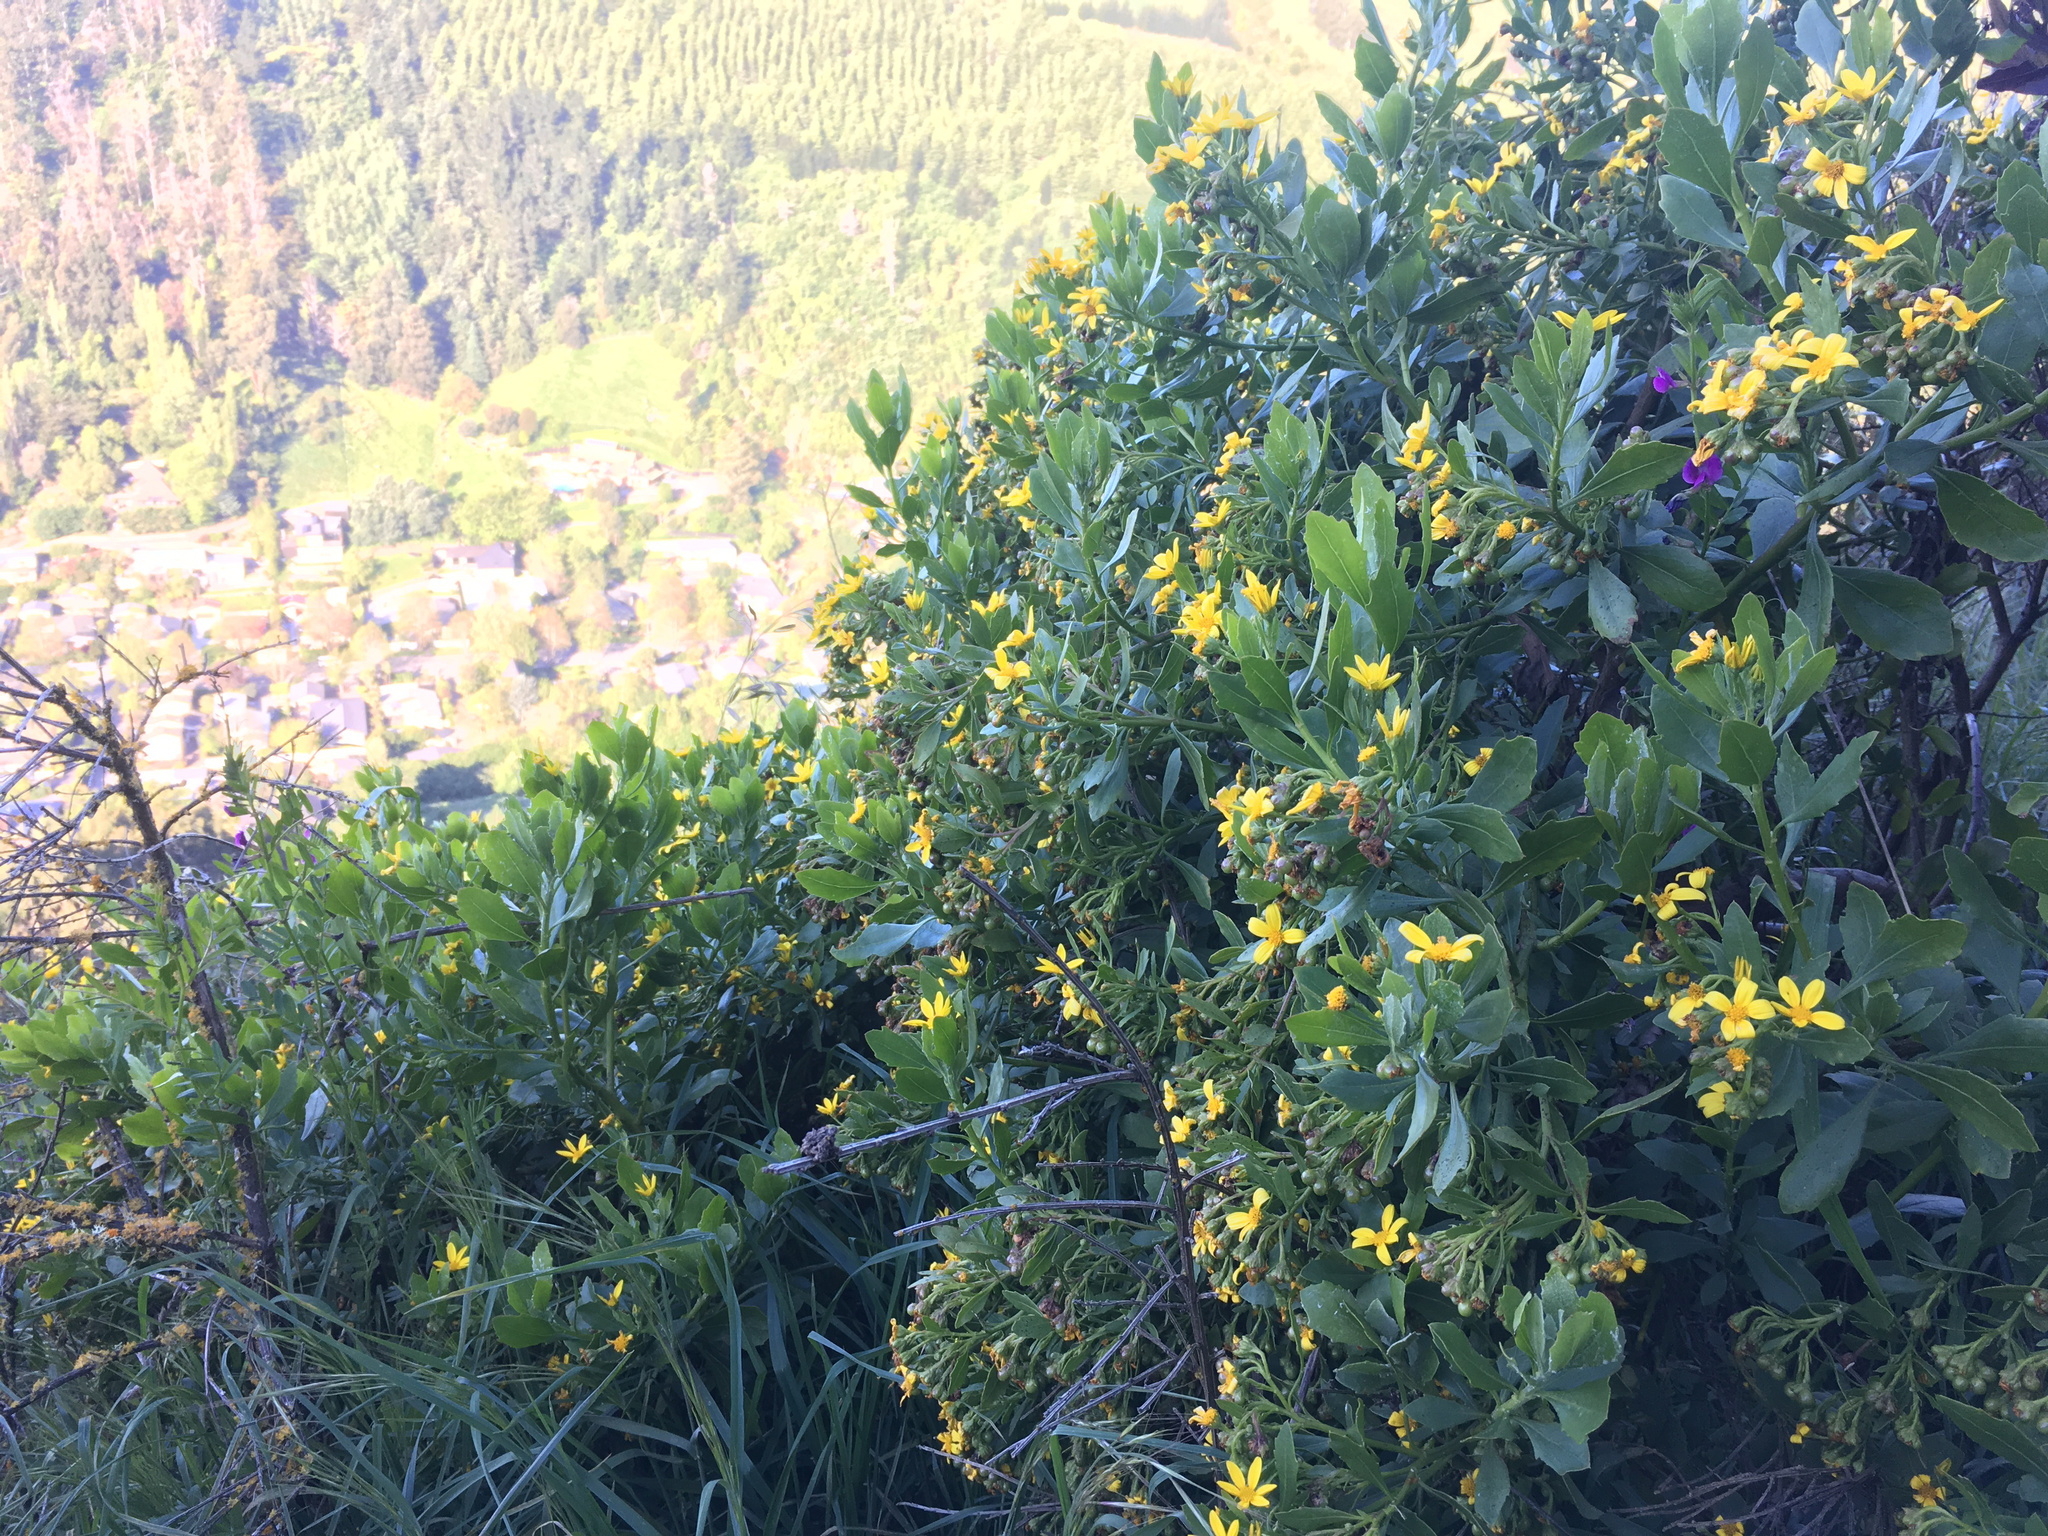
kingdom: Plantae
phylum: Tracheophyta
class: Magnoliopsida
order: Asterales
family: Asteraceae
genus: Osteospermum
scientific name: Osteospermum moniliferum
